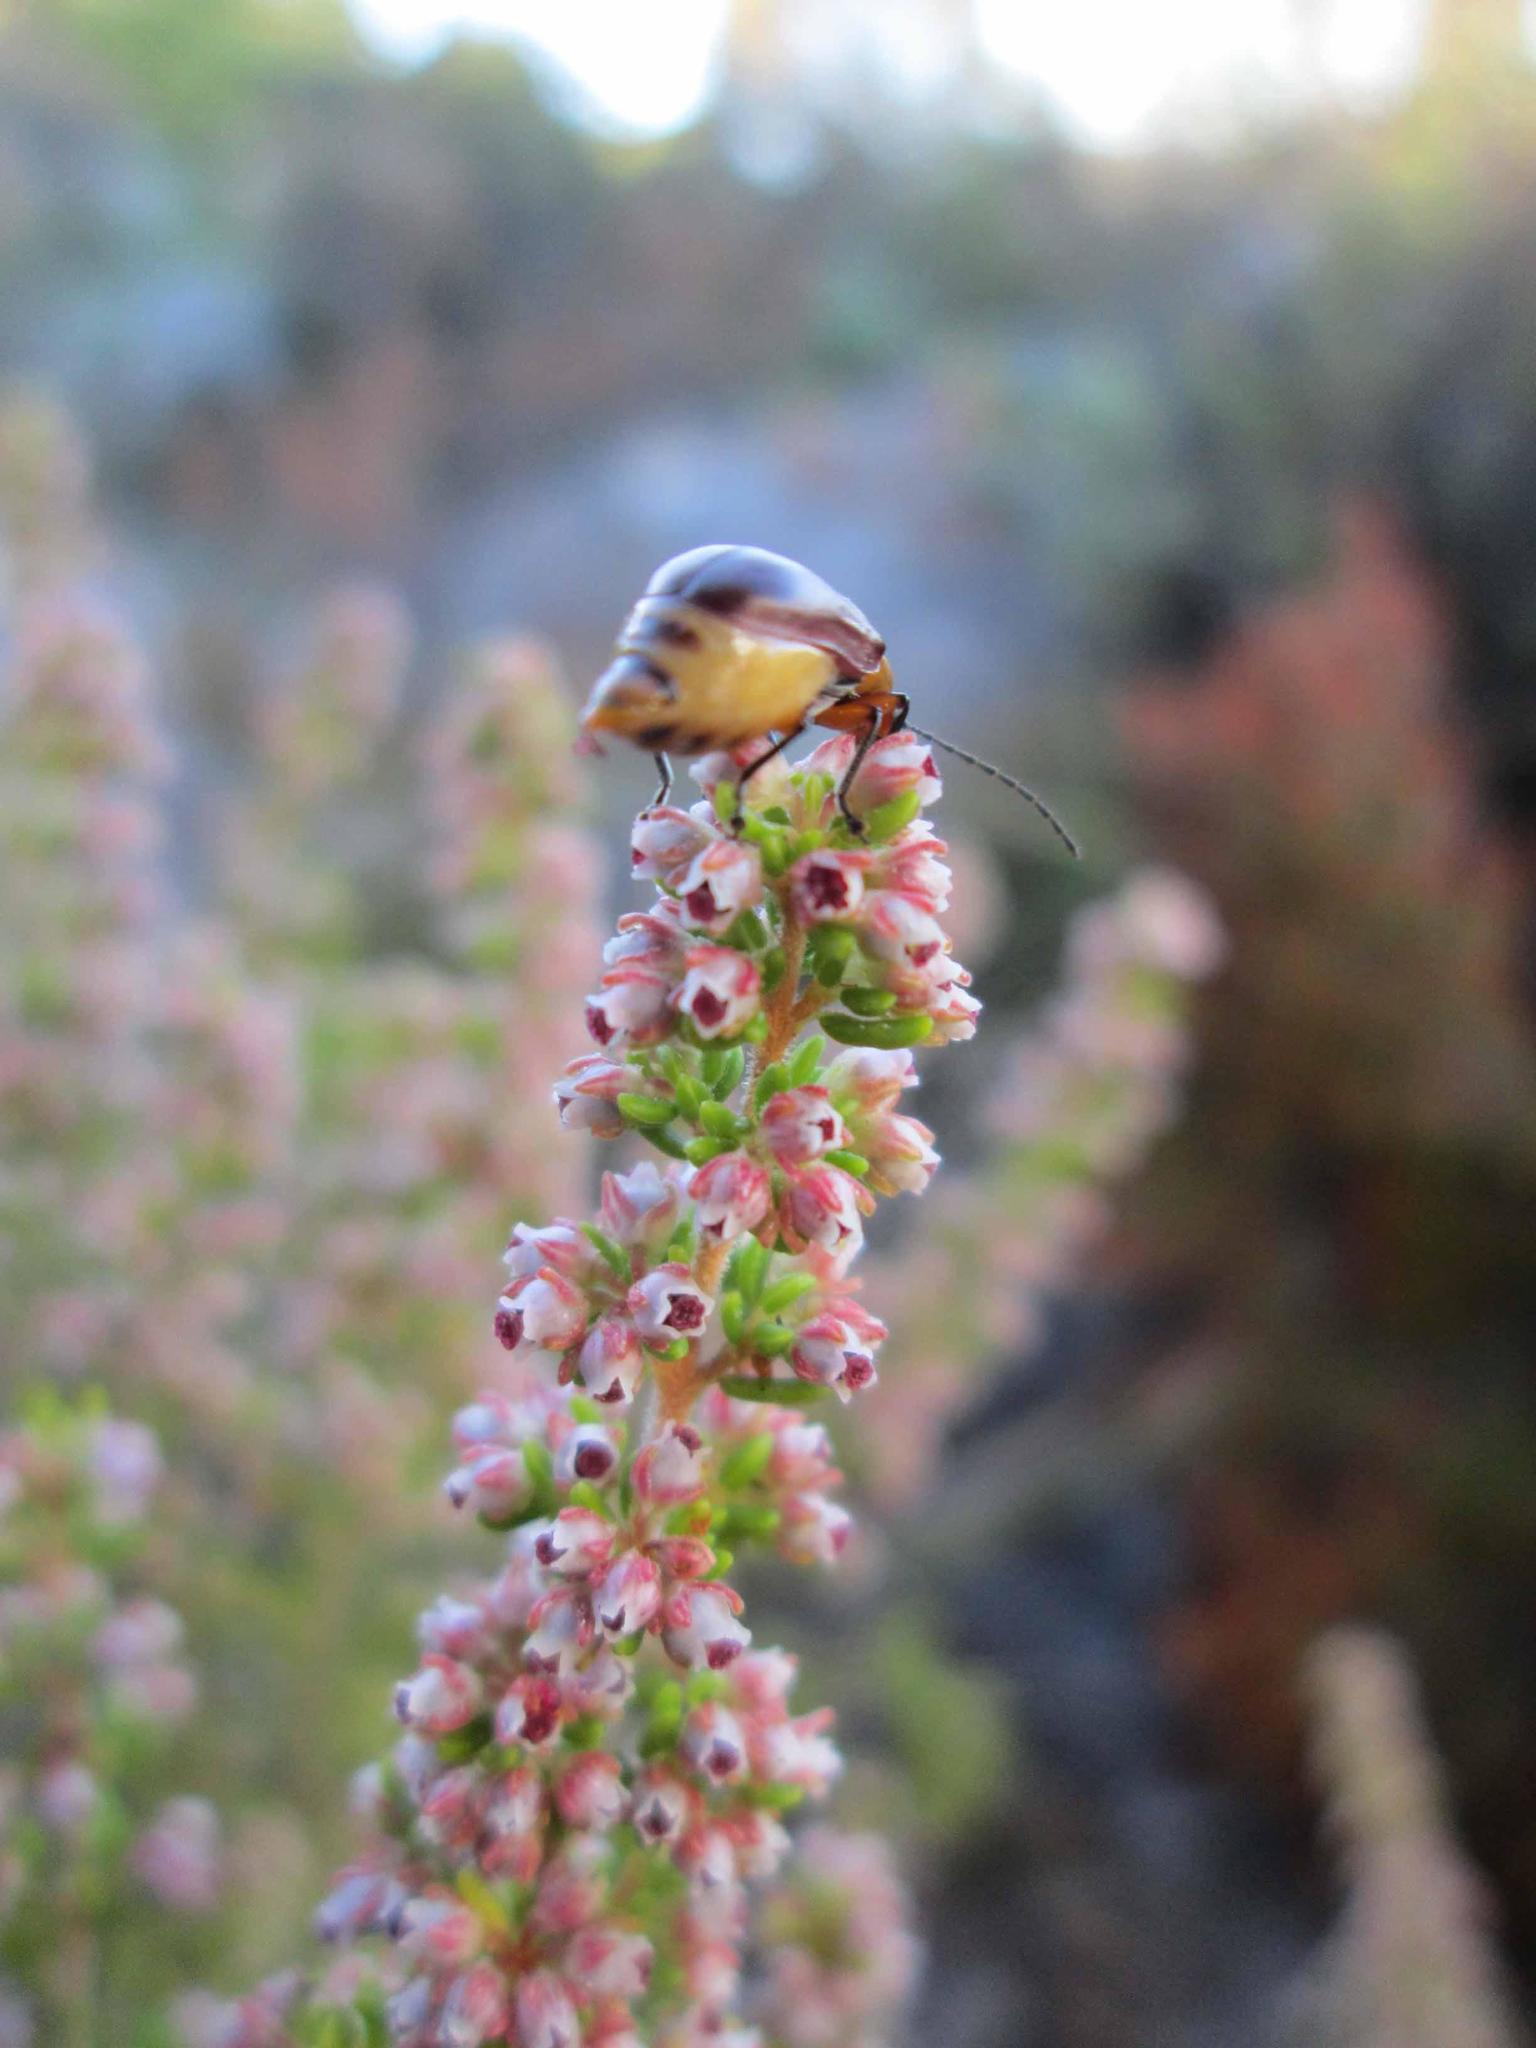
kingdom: Plantae
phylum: Tracheophyta
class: Magnoliopsida
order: Ericales
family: Ericaceae
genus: Erica
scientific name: Erica hispidula
